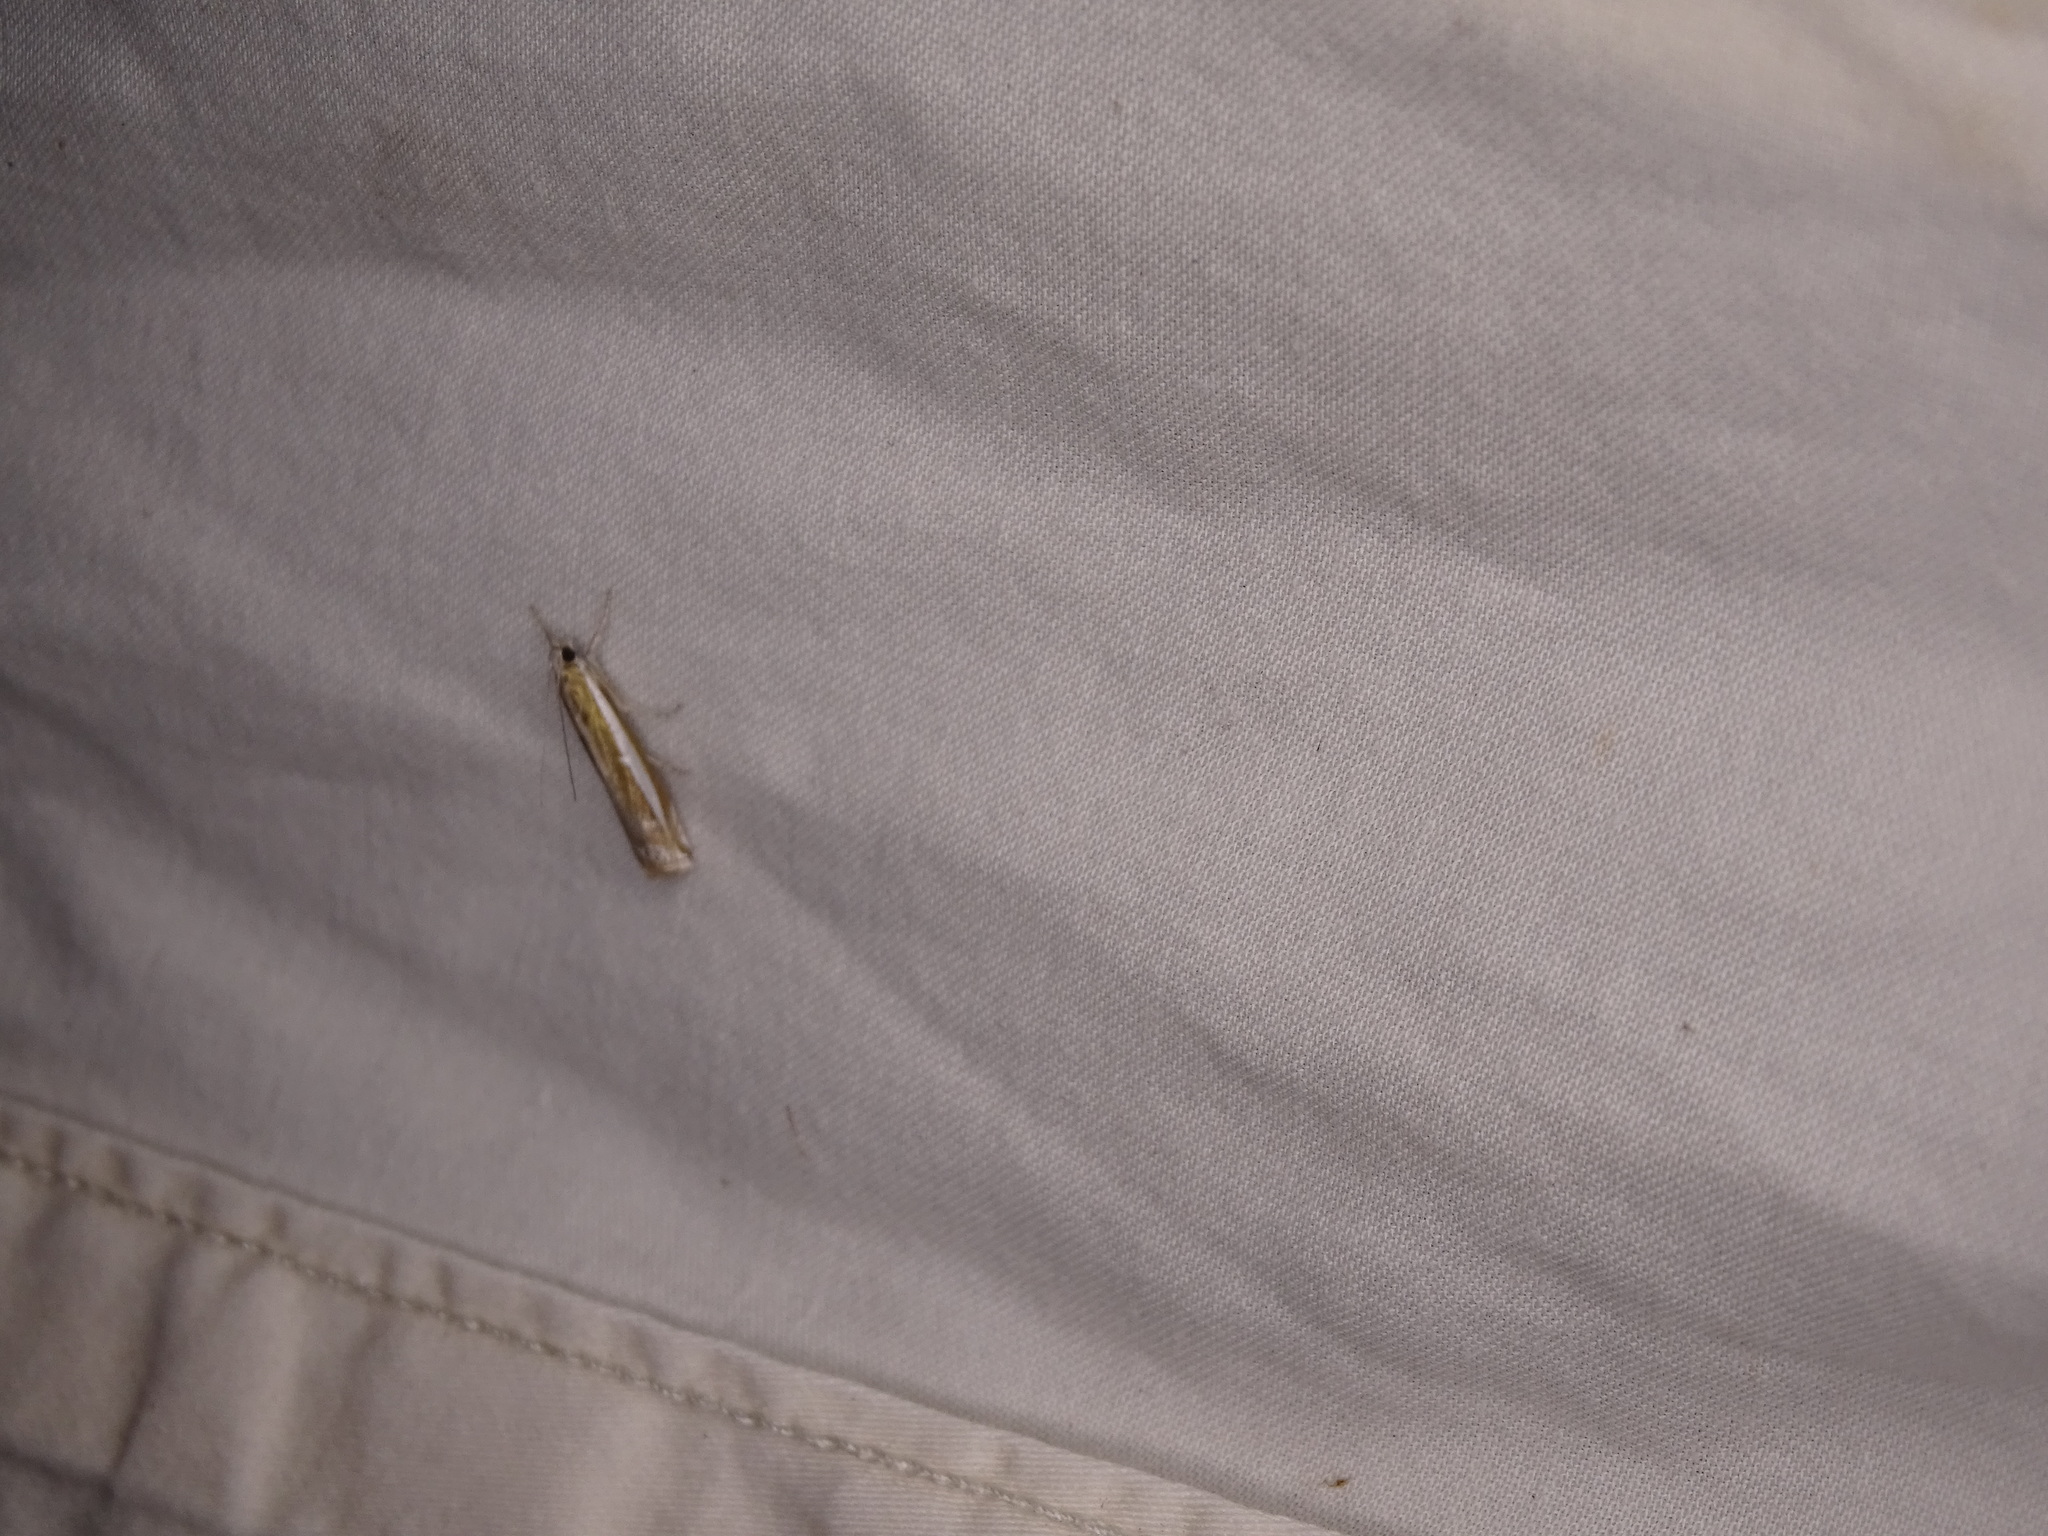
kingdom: Animalia
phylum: Arthropoda
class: Insecta
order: Lepidoptera
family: Crambidae
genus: Crambus
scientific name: Crambus praefectellus
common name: Common grass-veneer
